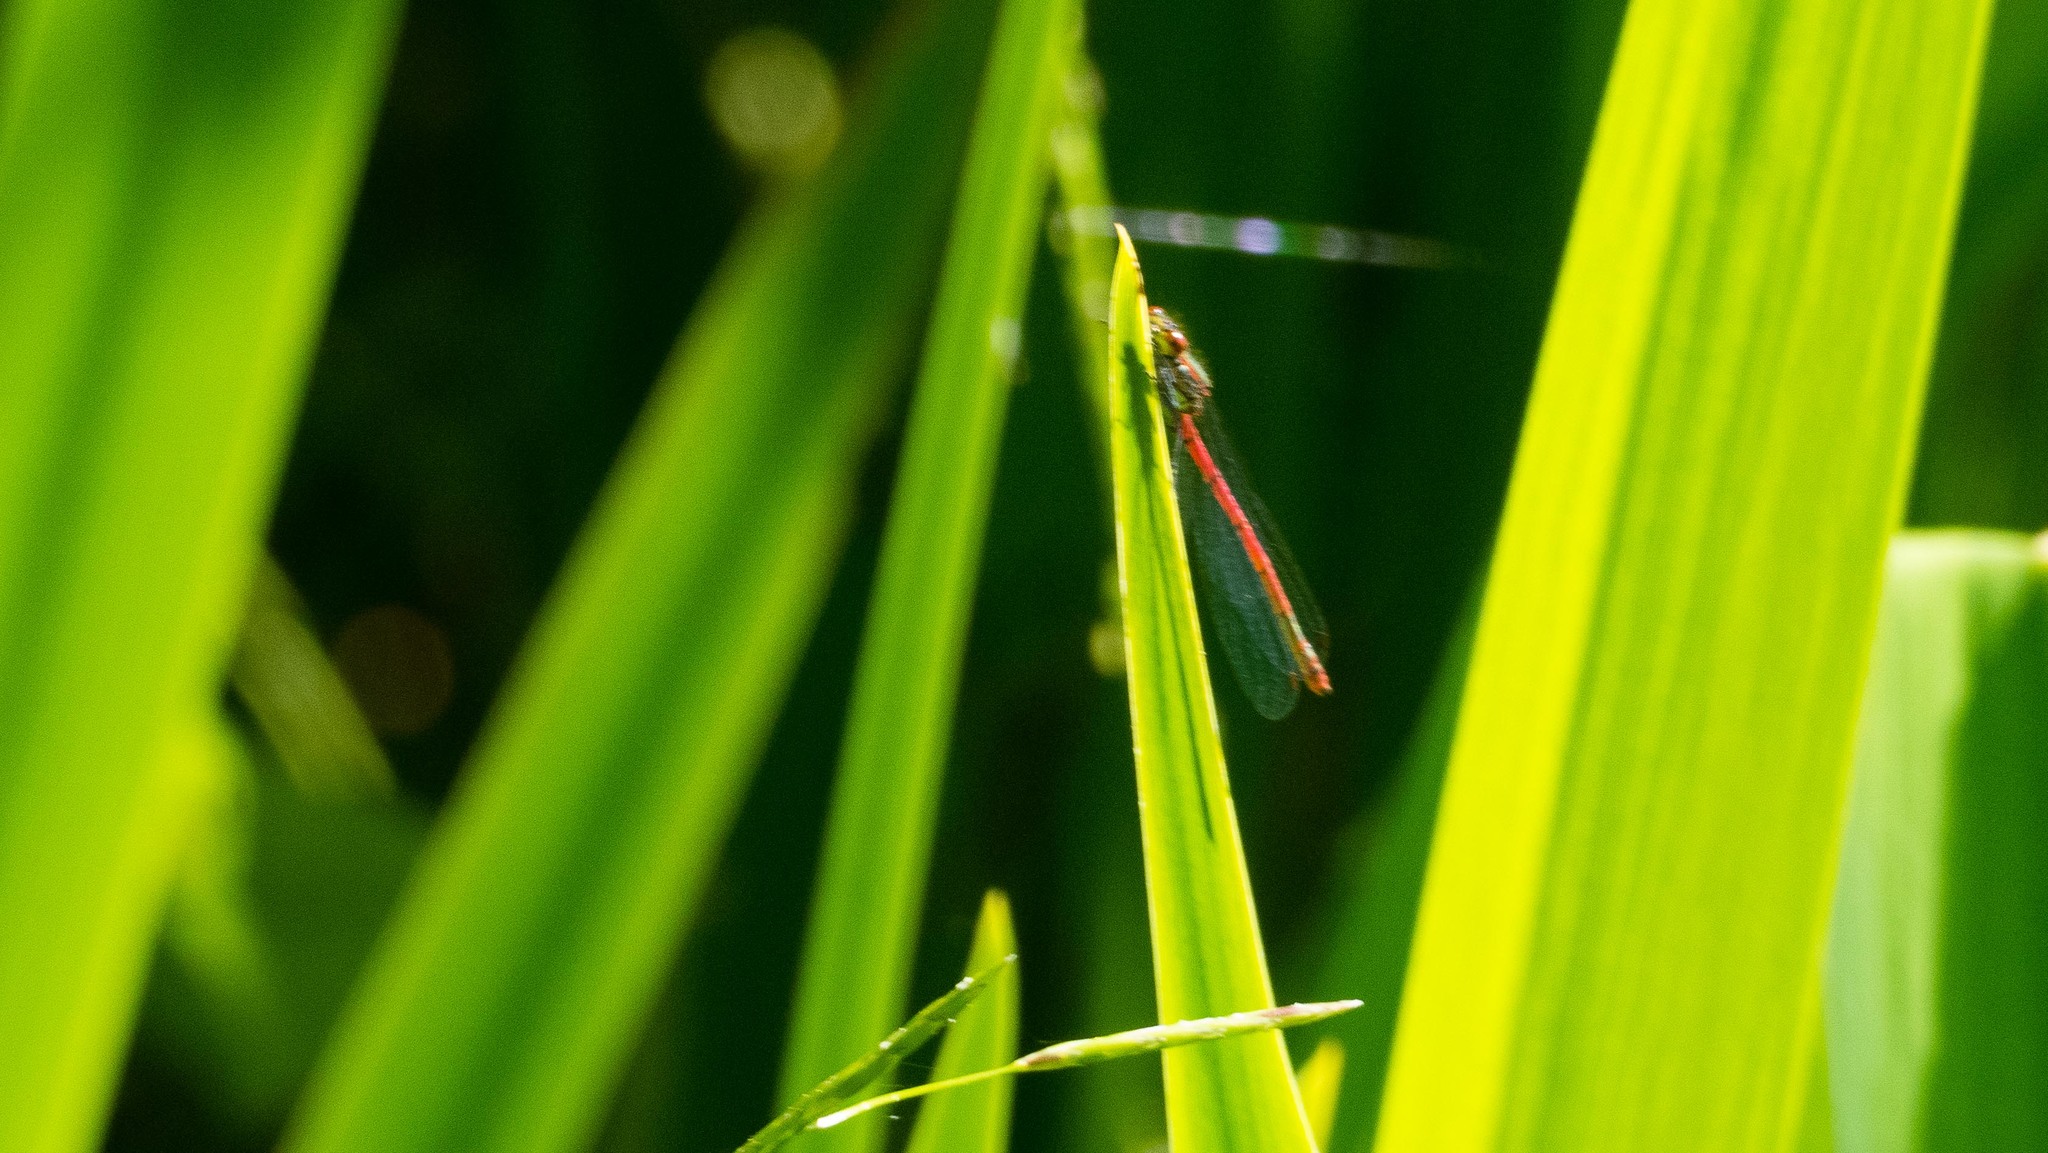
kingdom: Animalia
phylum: Arthropoda
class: Insecta
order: Odonata
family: Coenagrionidae
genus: Pyrrhosoma
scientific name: Pyrrhosoma nymphula
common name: Large red damsel
